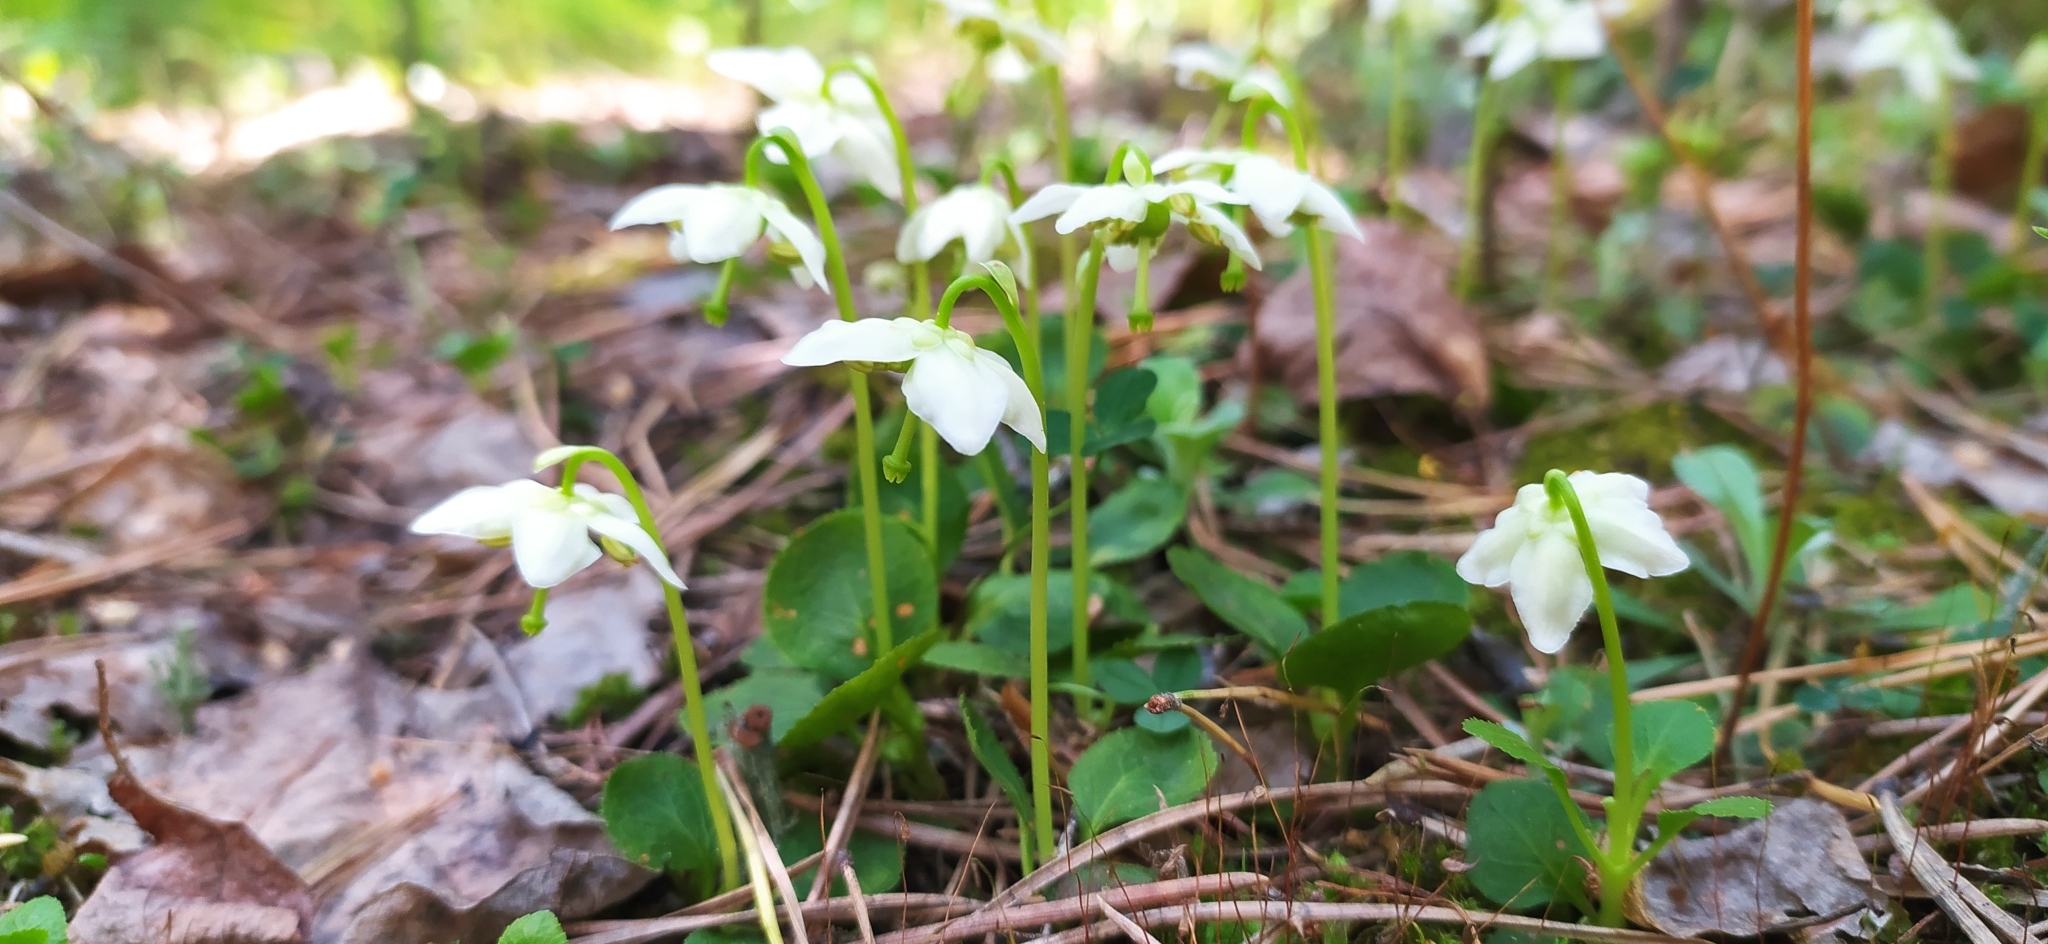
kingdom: Plantae
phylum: Tracheophyta
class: Magnoliopsida
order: Ericales
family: Ericaceae
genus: Moneses
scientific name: Moneses uniflora
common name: One-flowered wintergreen
